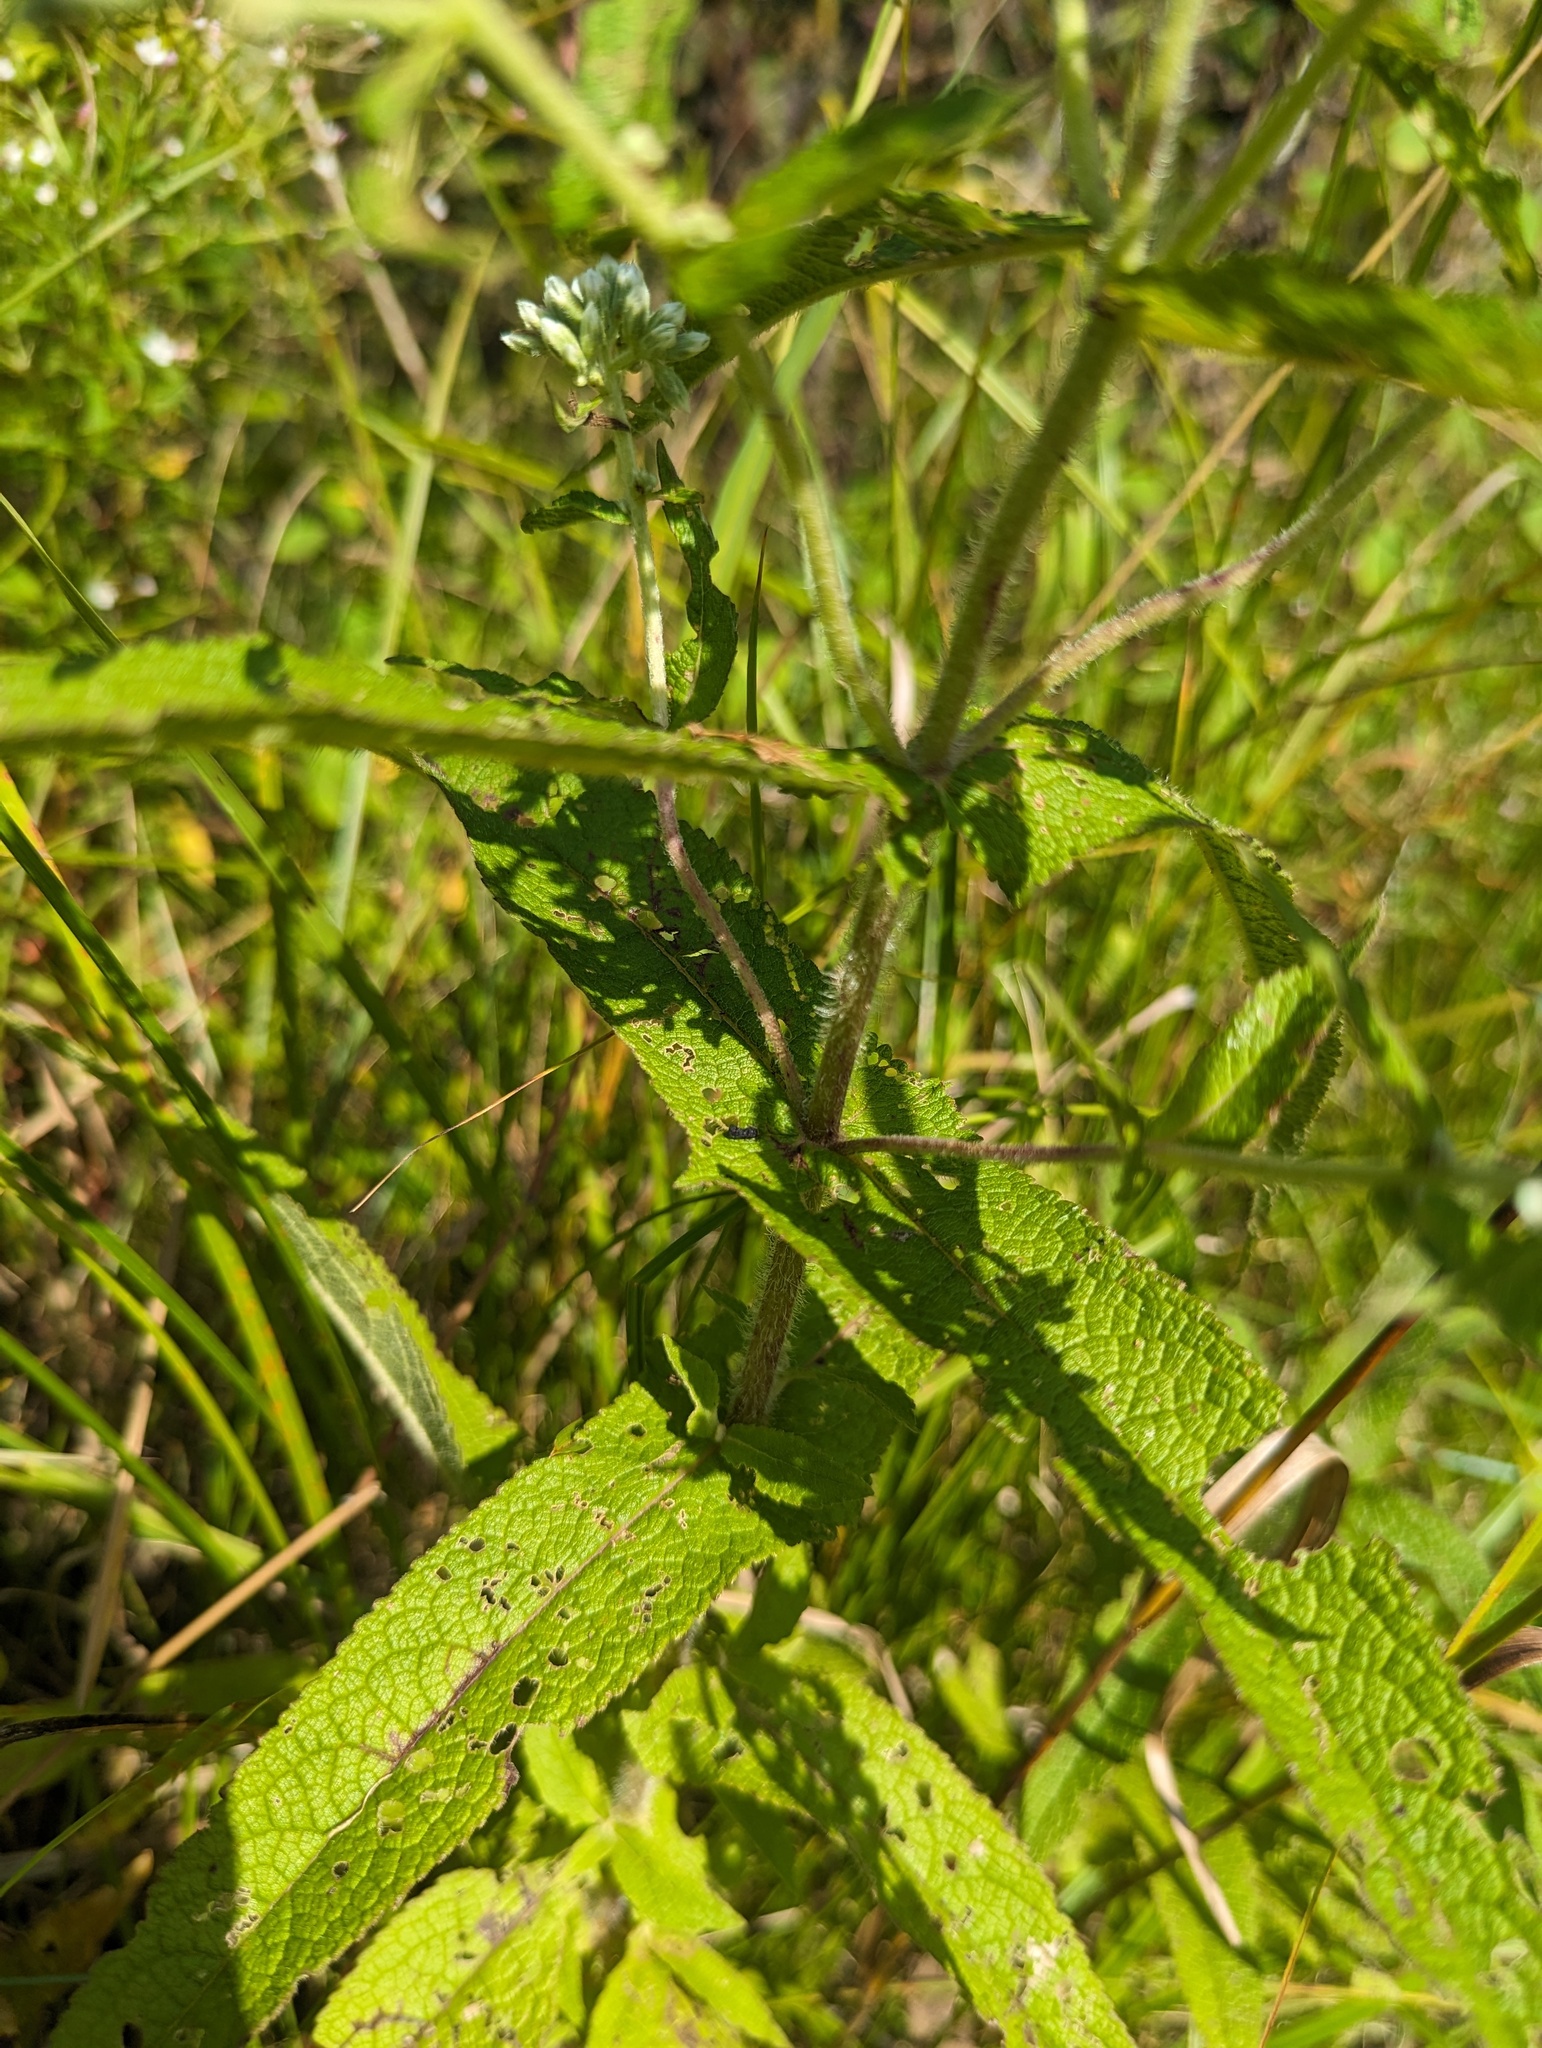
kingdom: Plantae
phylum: Tracheophyta
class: Magnoliopsida
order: Asterales
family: Asteraceae
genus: Eupatorium
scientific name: Eupatorium perfoliatum
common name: Boneset
